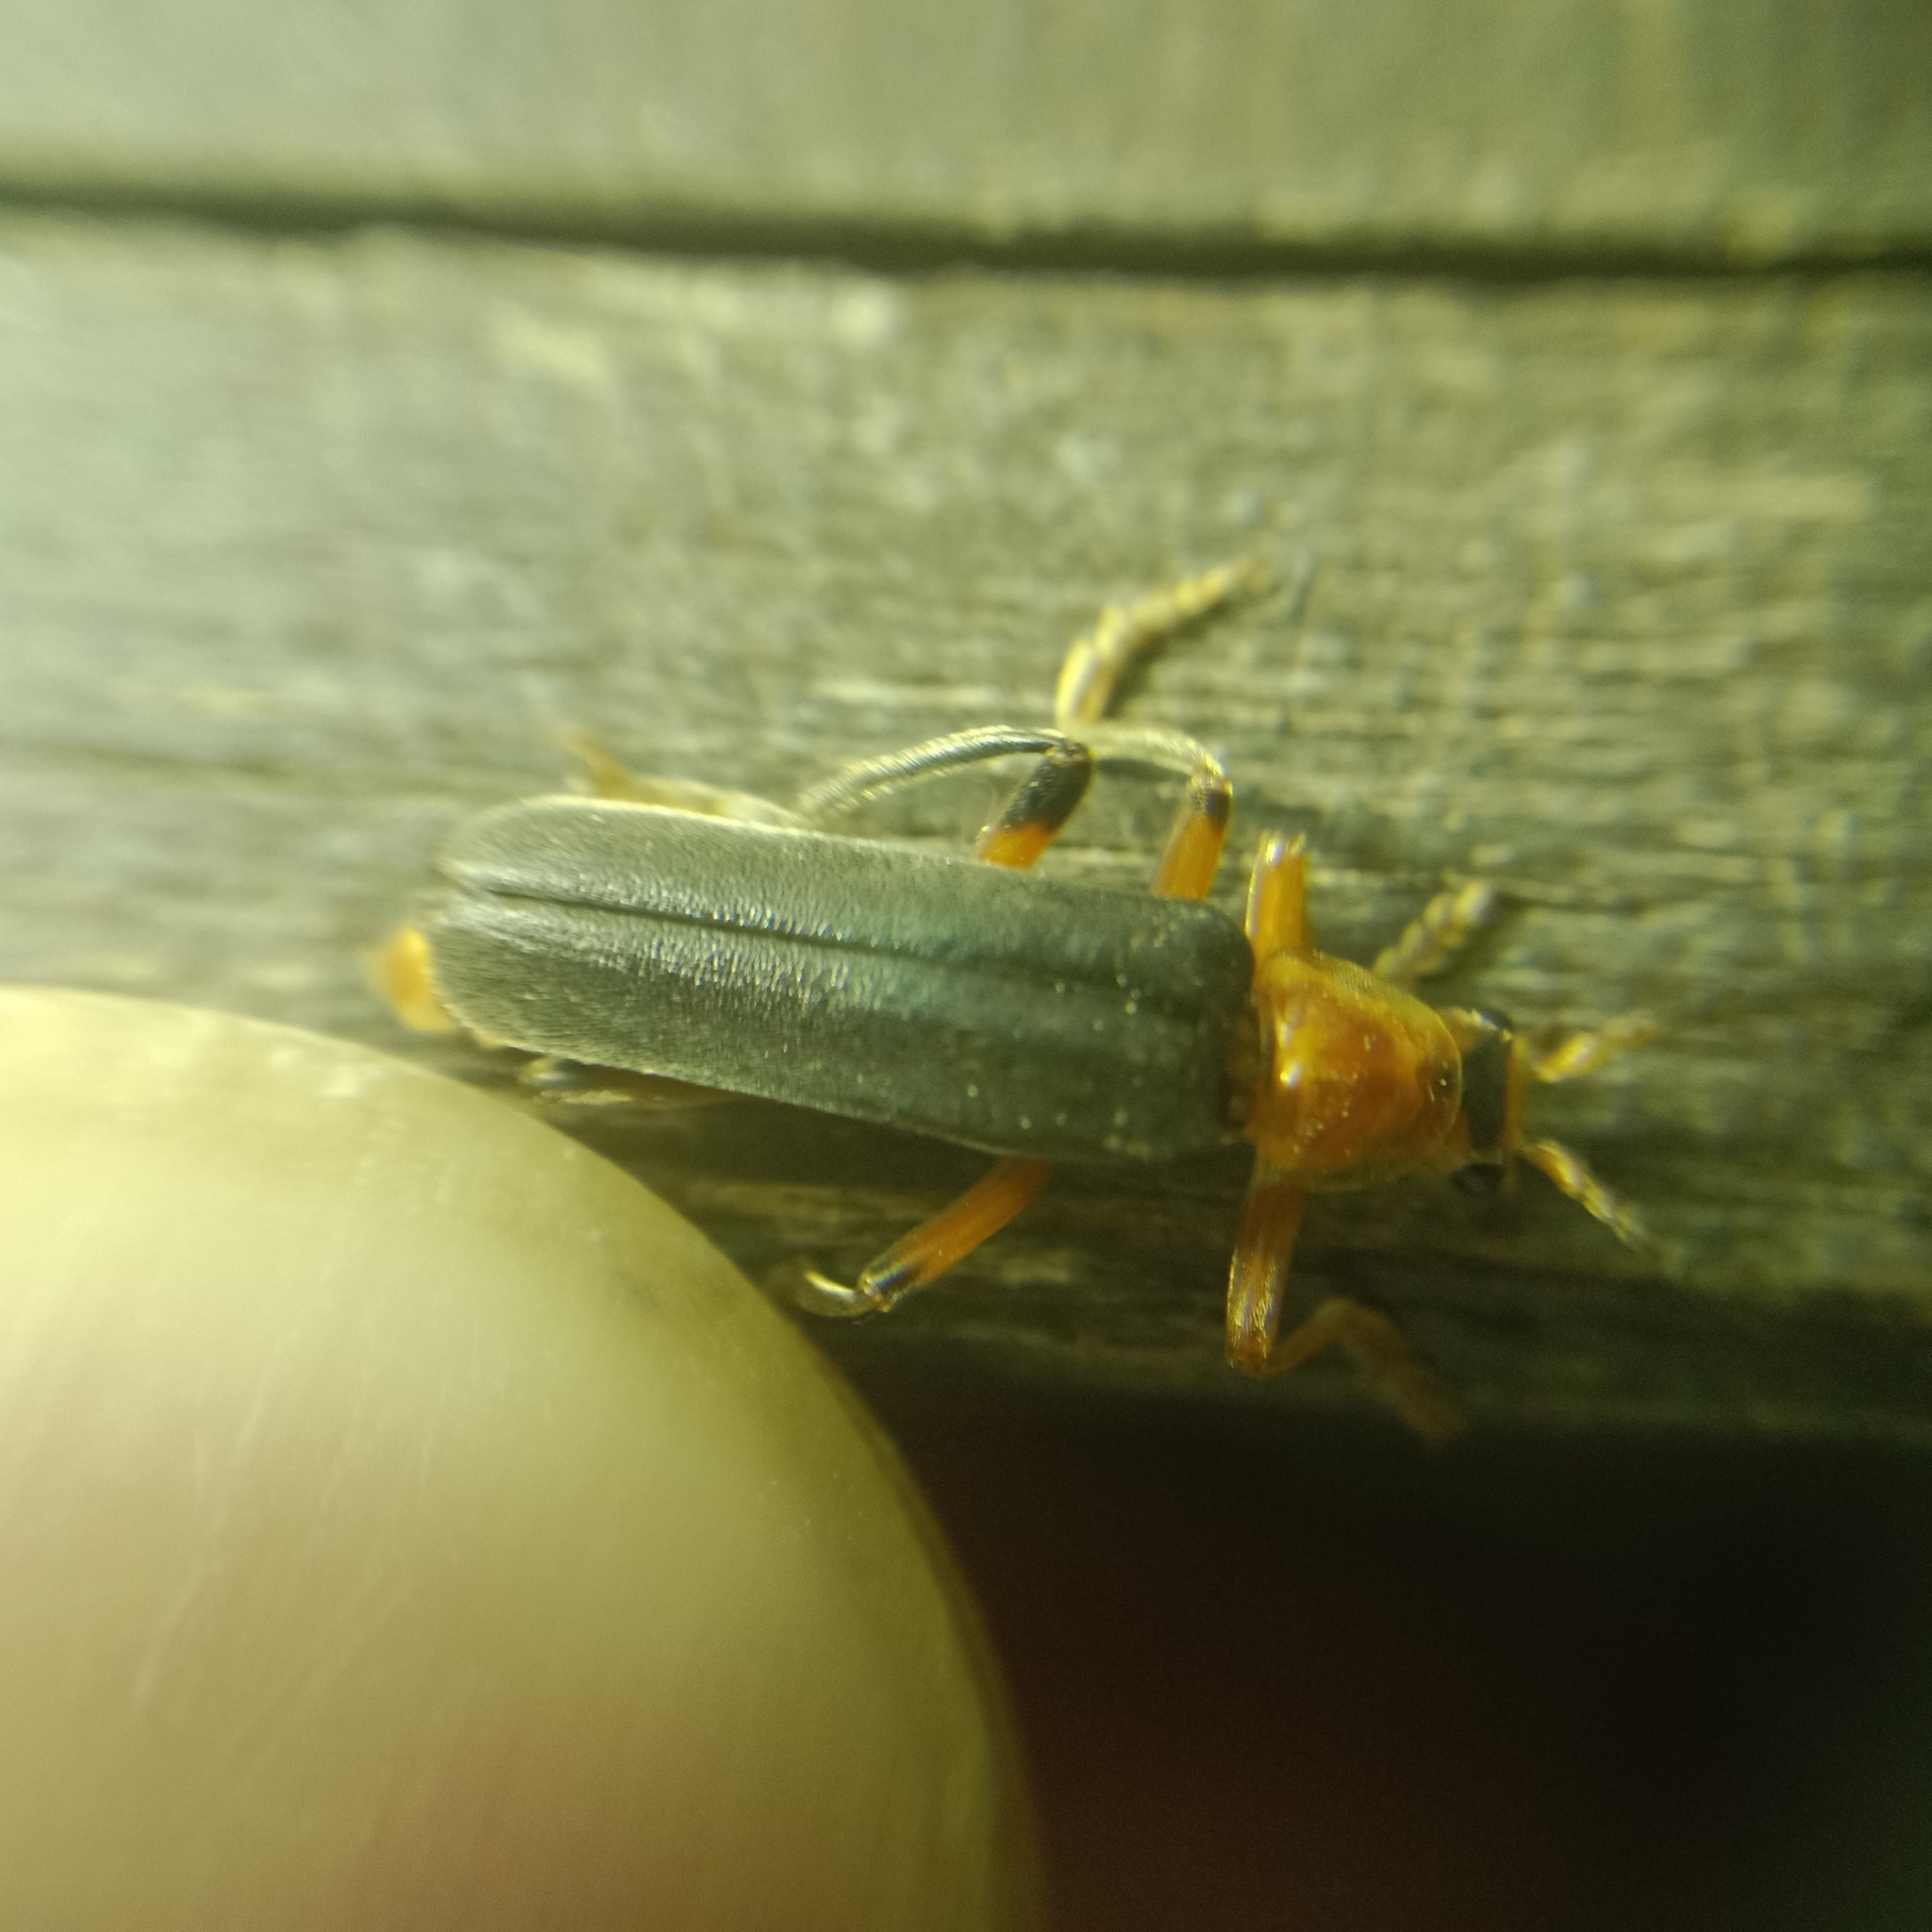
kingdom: Animalia
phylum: Arthropoda
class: Insecta
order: Coleoptera
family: Cantharidae
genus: Cantharis
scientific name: Cantharis livida
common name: Livid soldier beetle
